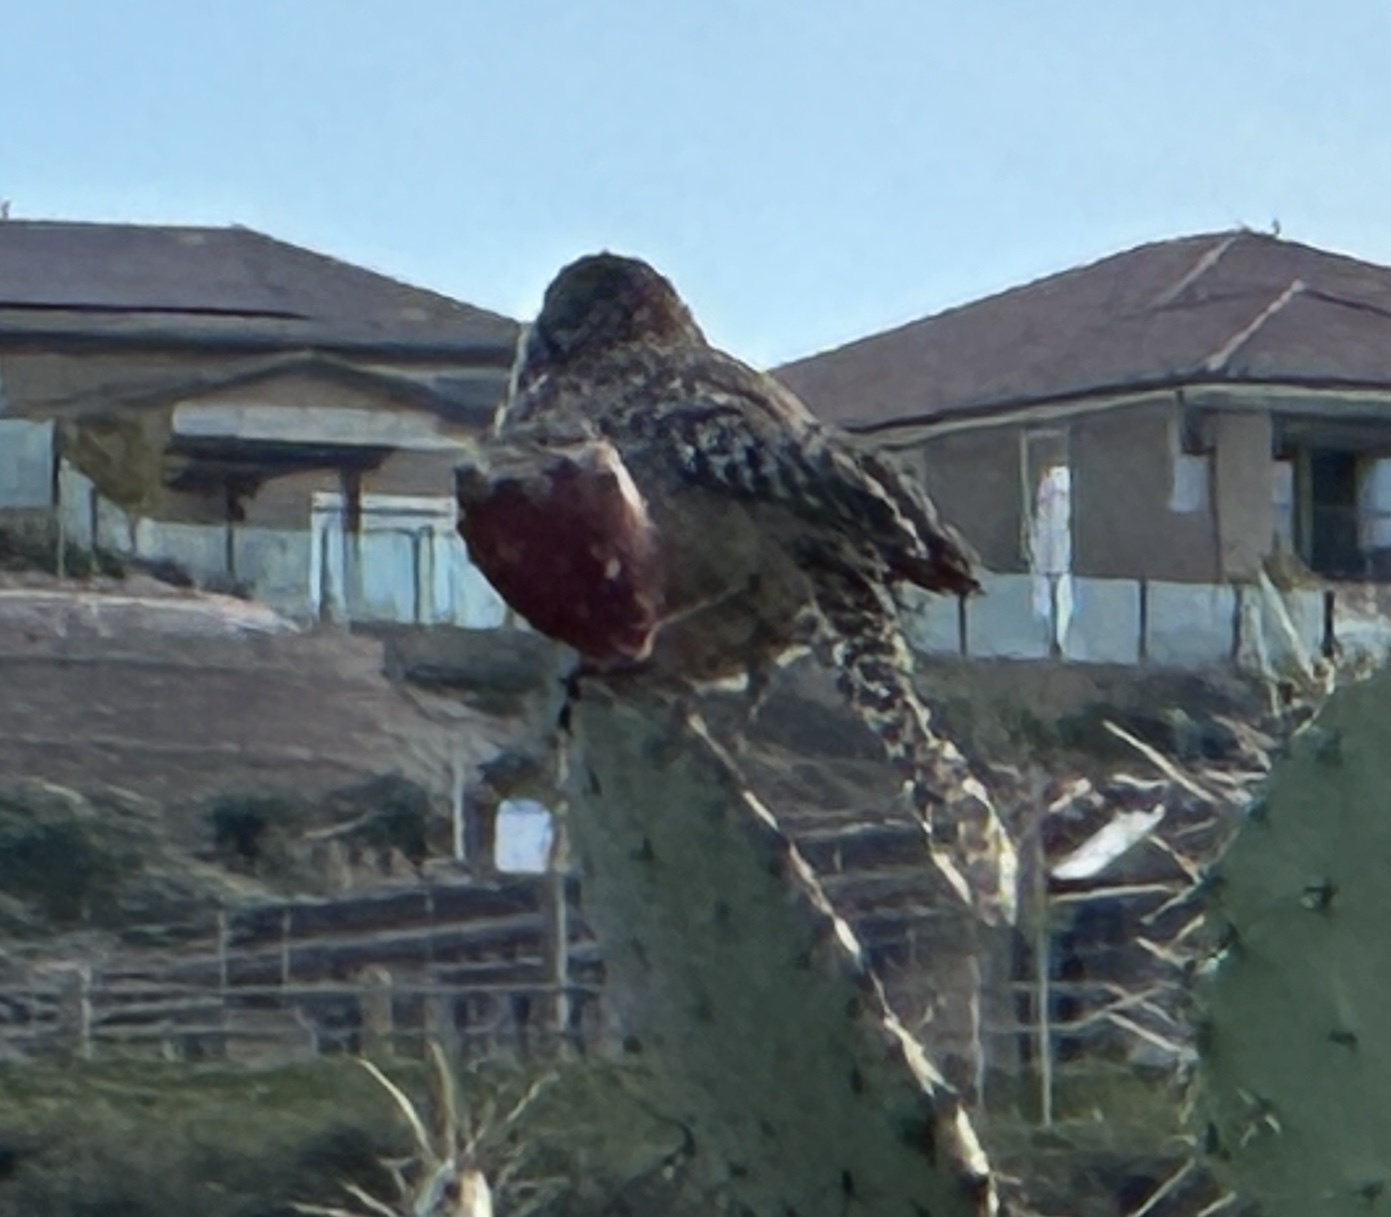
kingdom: Animalia
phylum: Chordata
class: Aves
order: Passeriformes
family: Troglodytidae
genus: Campylorhynchus
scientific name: Campylorhynchus brunneicapillus
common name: Cactus wren
